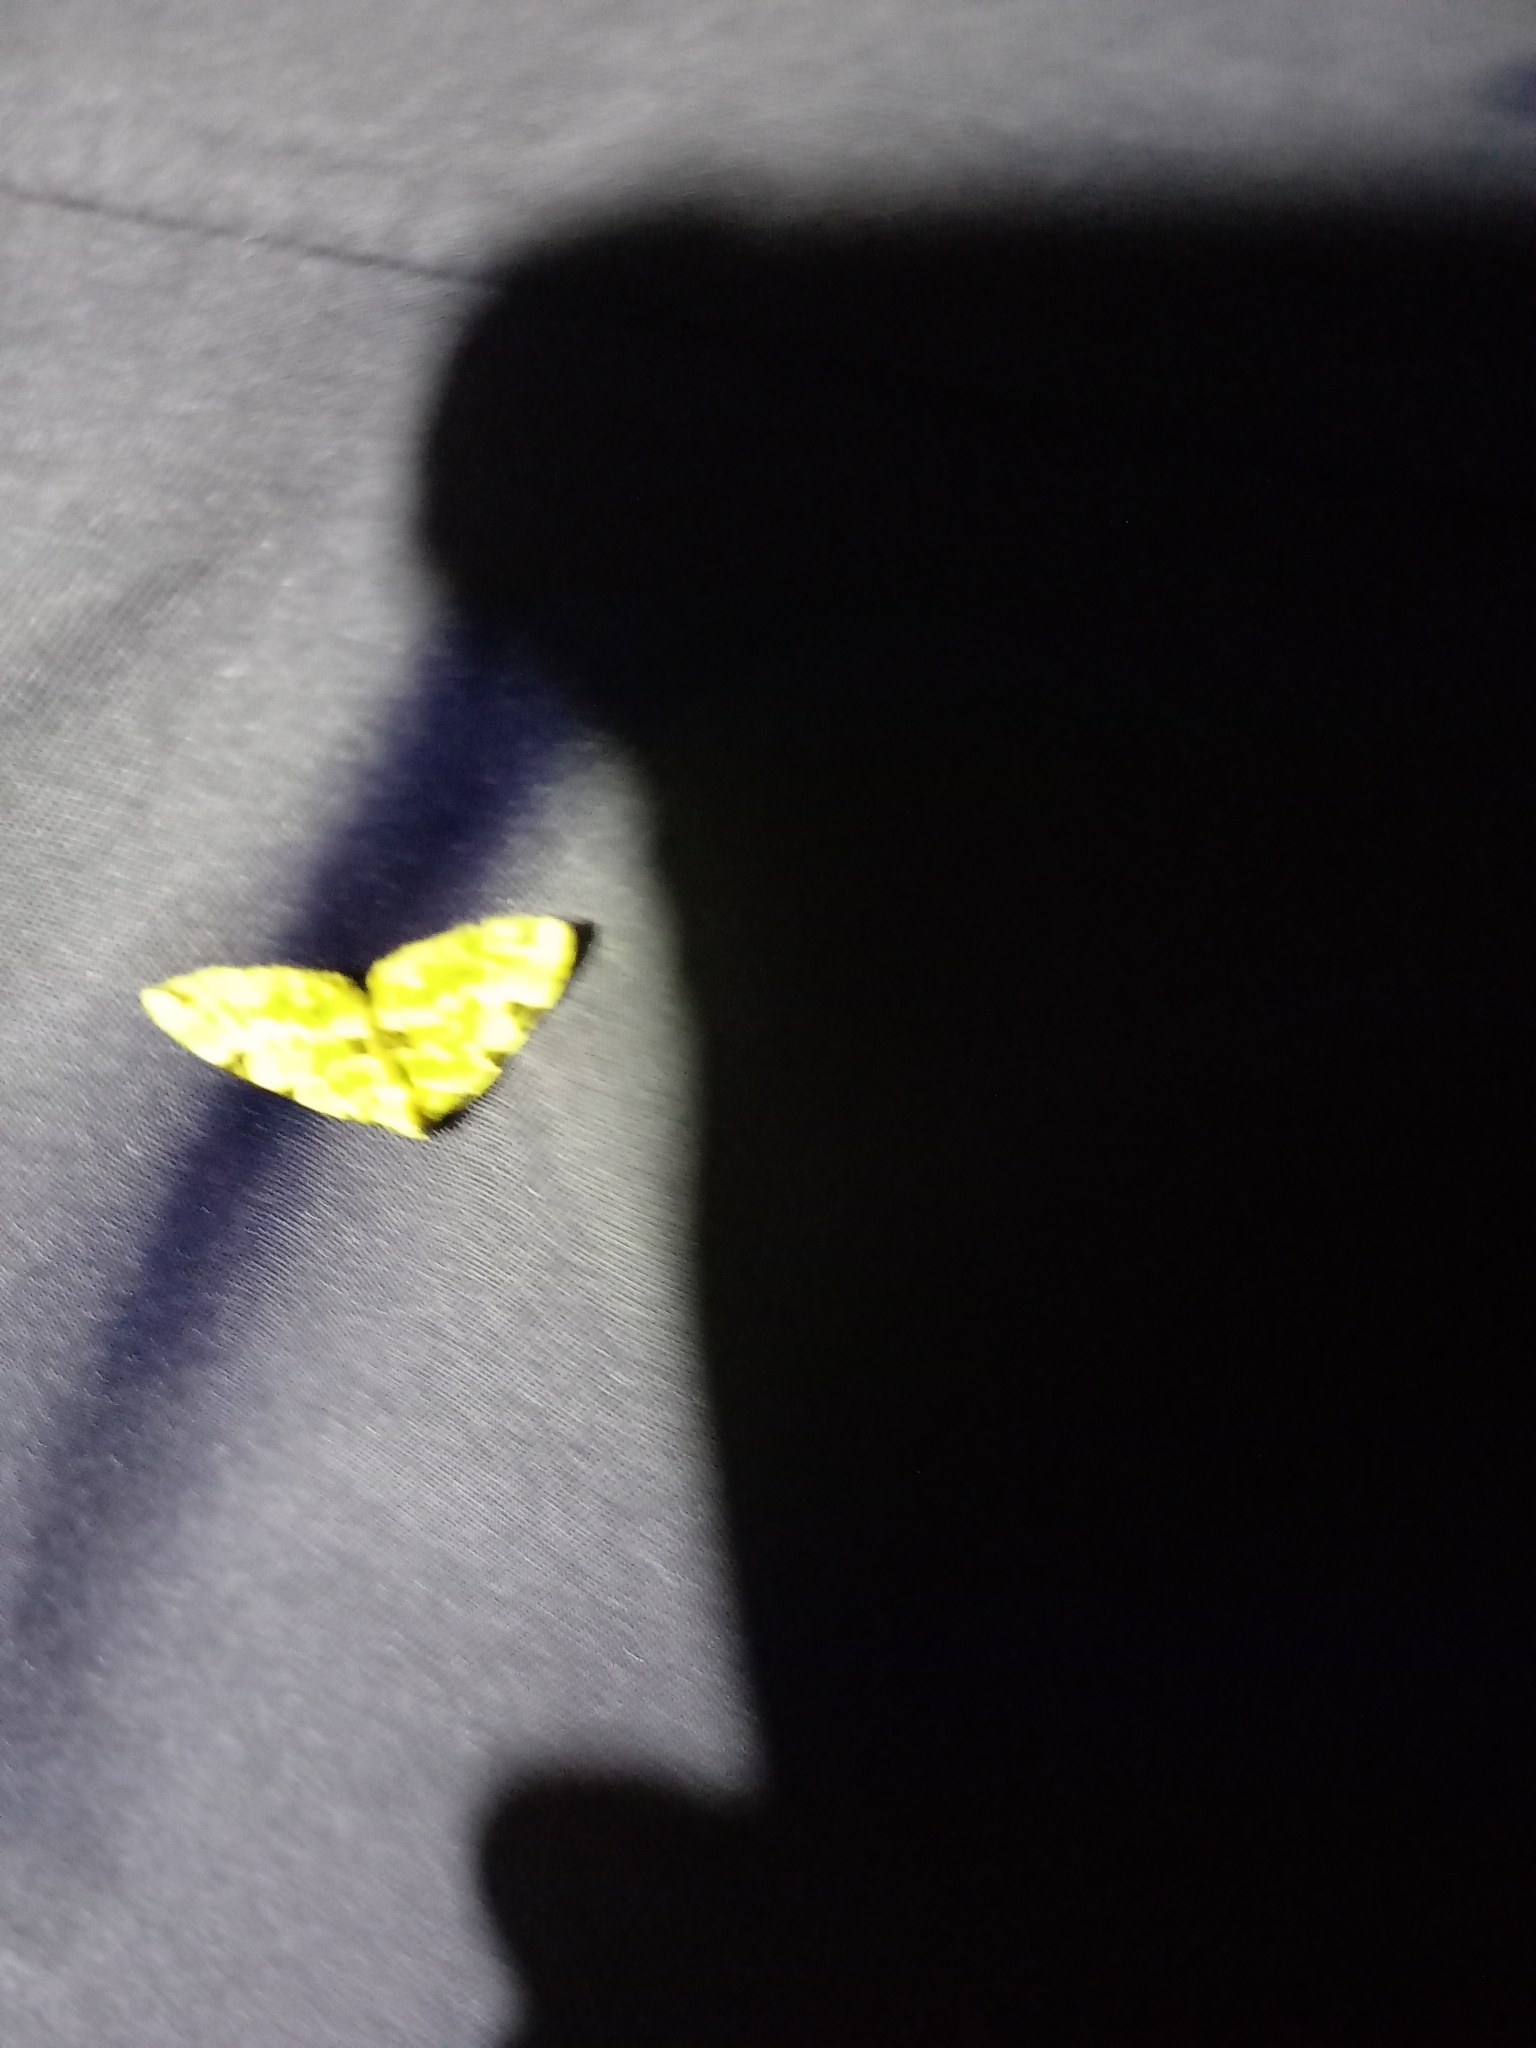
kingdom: Animalia
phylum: Arthropoda
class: Insecta
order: Lepidoptera
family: Geometridae
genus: Colostygia
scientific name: Colostygia pectinataria
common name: Green carpet
